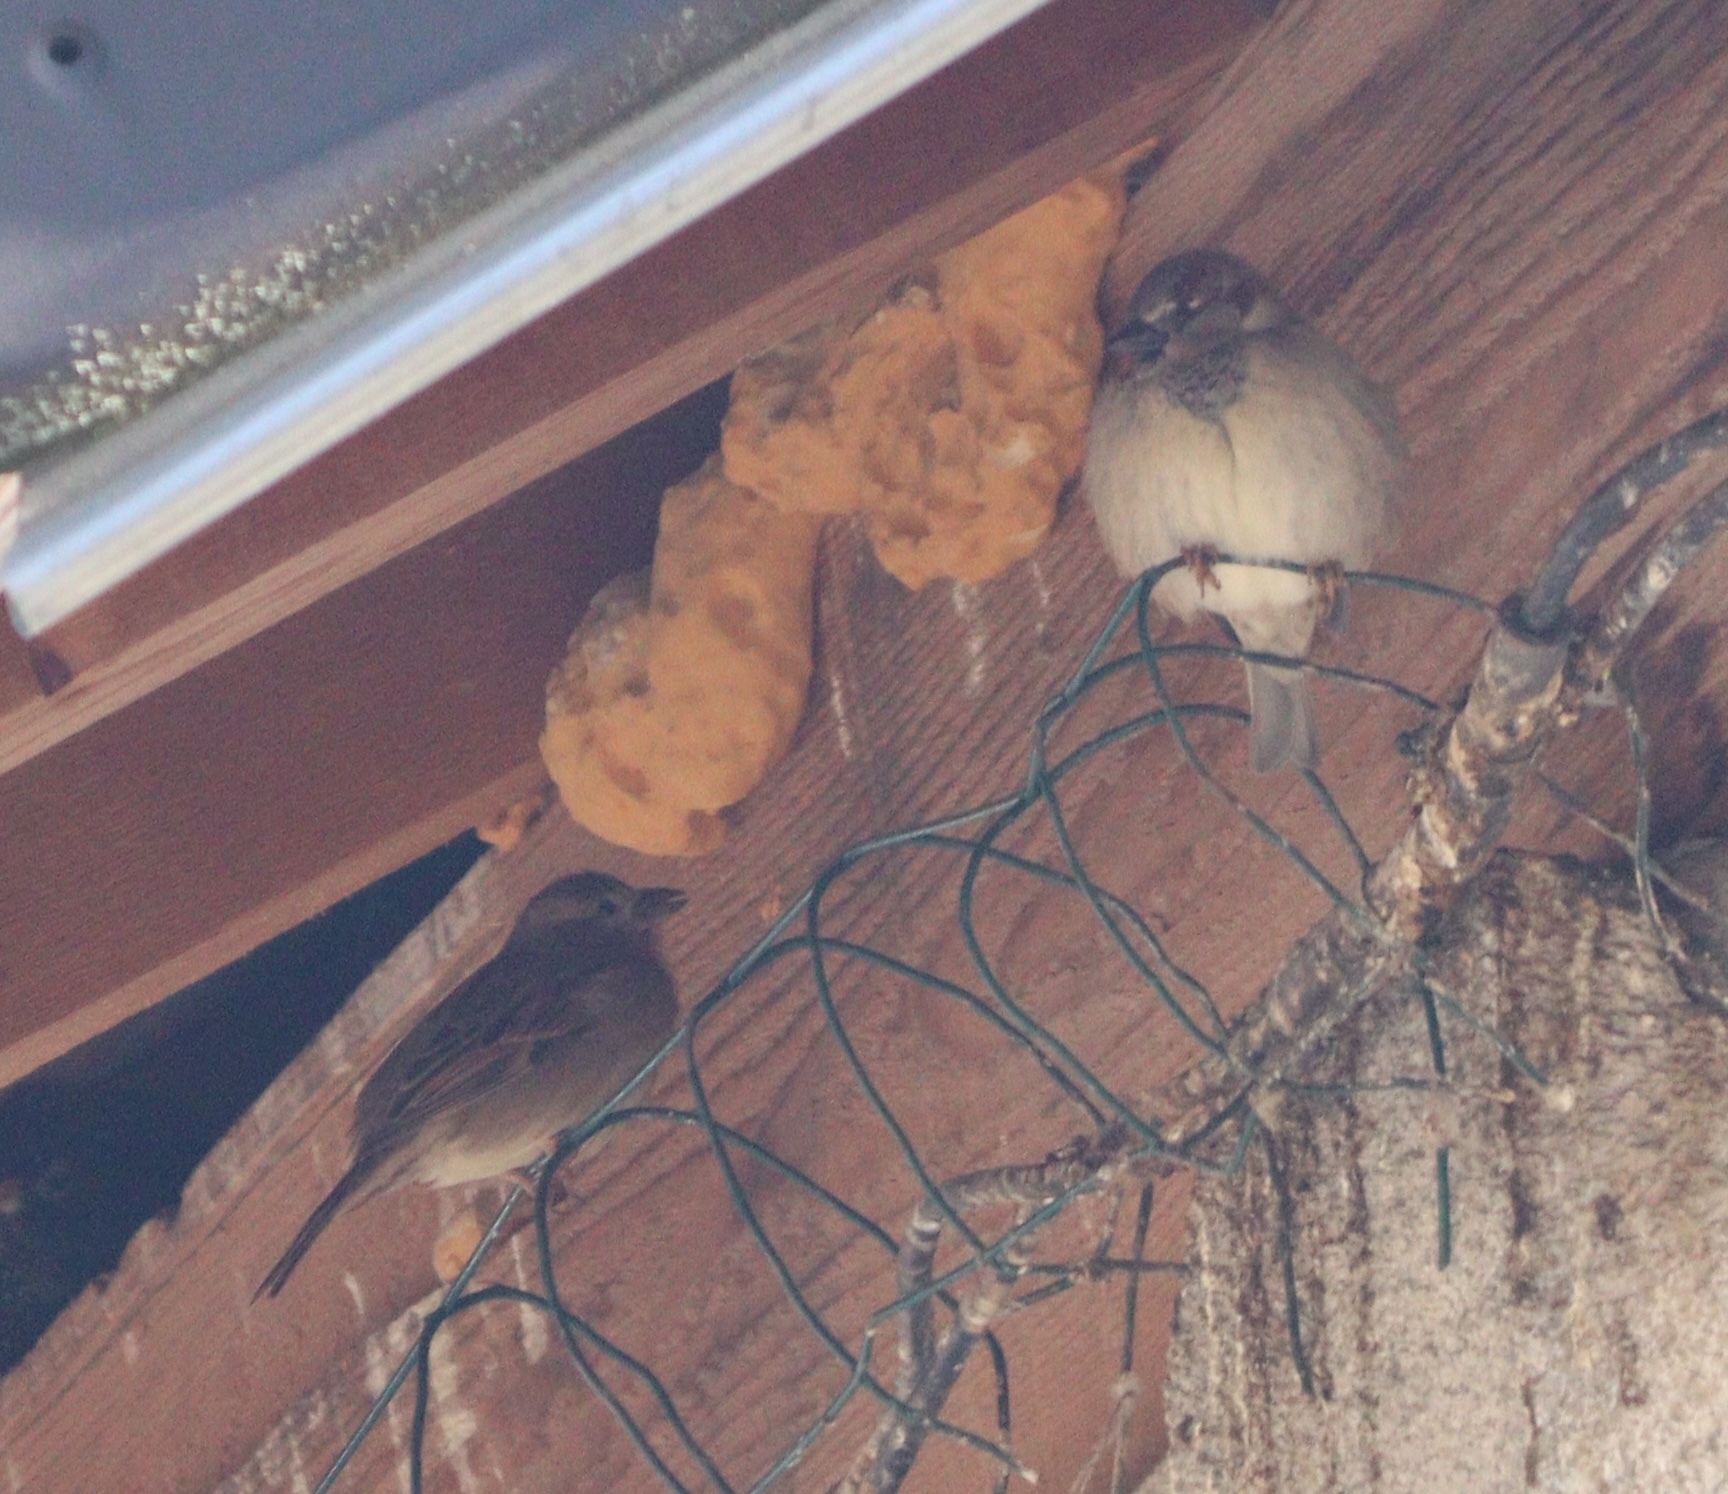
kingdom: Animalia
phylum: Chordata
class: Aves
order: Passeriformes
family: Passeridae
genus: Passer
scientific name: Passer domesticus
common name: House sparrow
